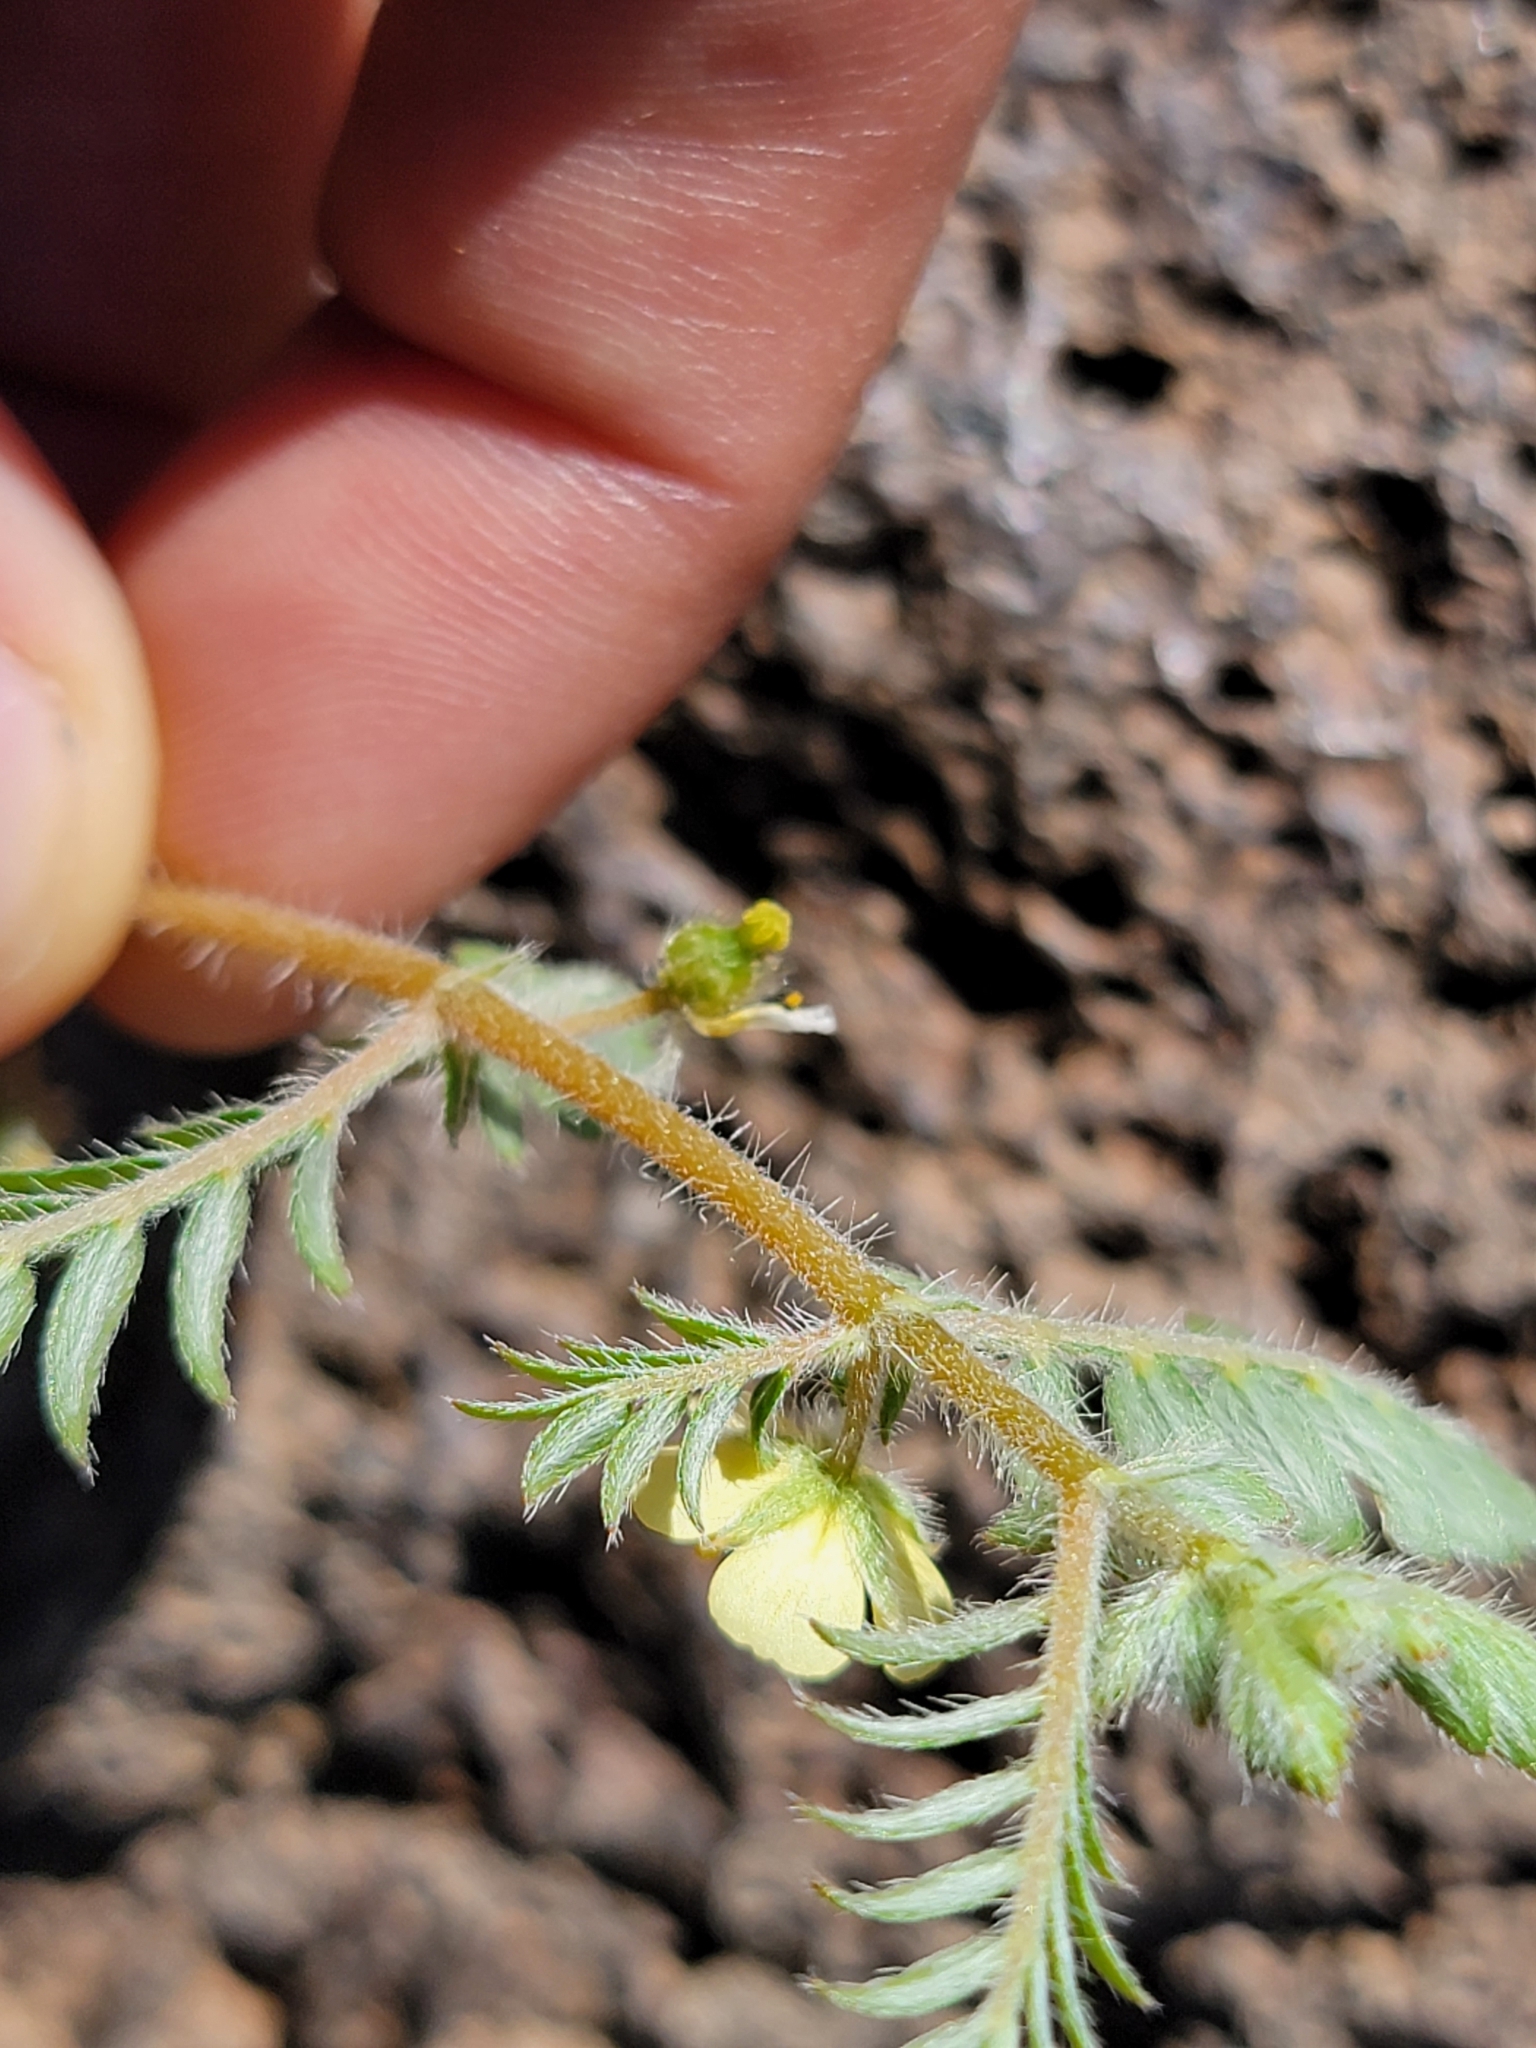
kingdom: Plantae
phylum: Tracheophyta
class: Magnoliopsida
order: Zygophyllales
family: Zygophyllaceae
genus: Tribulus
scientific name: Tribulus terrestris
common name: Puncturevine
